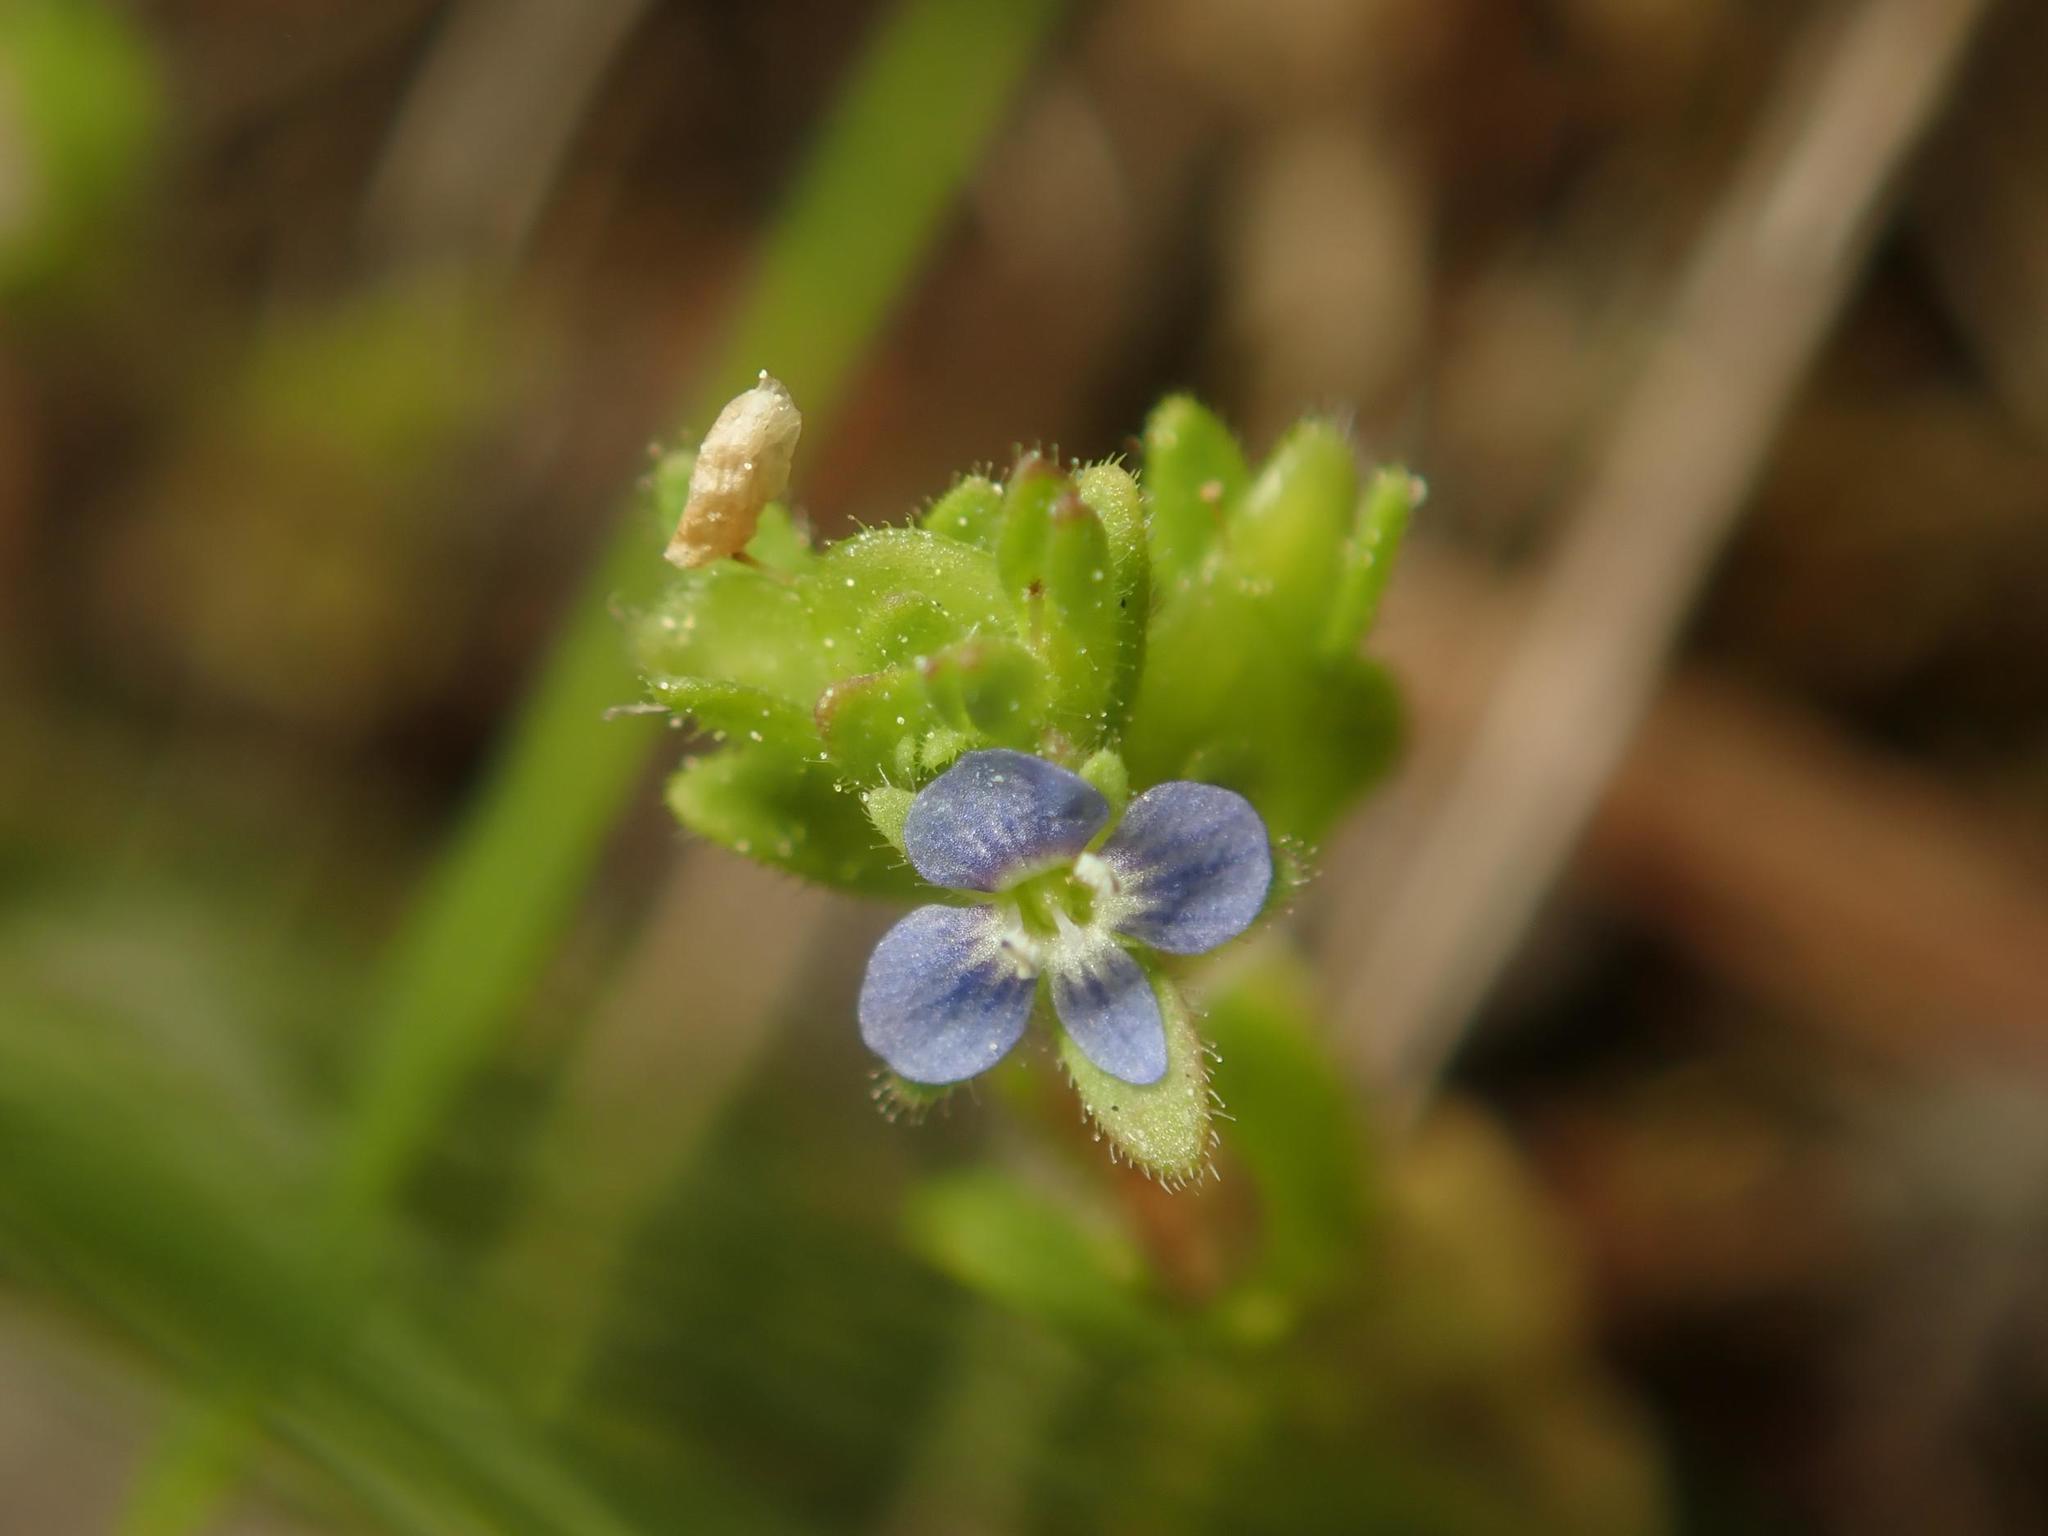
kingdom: Plantae
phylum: Tracheophyta
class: Magnoliopsida
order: Lamiales
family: Plantaginaceae
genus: Veronica
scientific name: Veronica arvensis
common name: Corn speedwell
